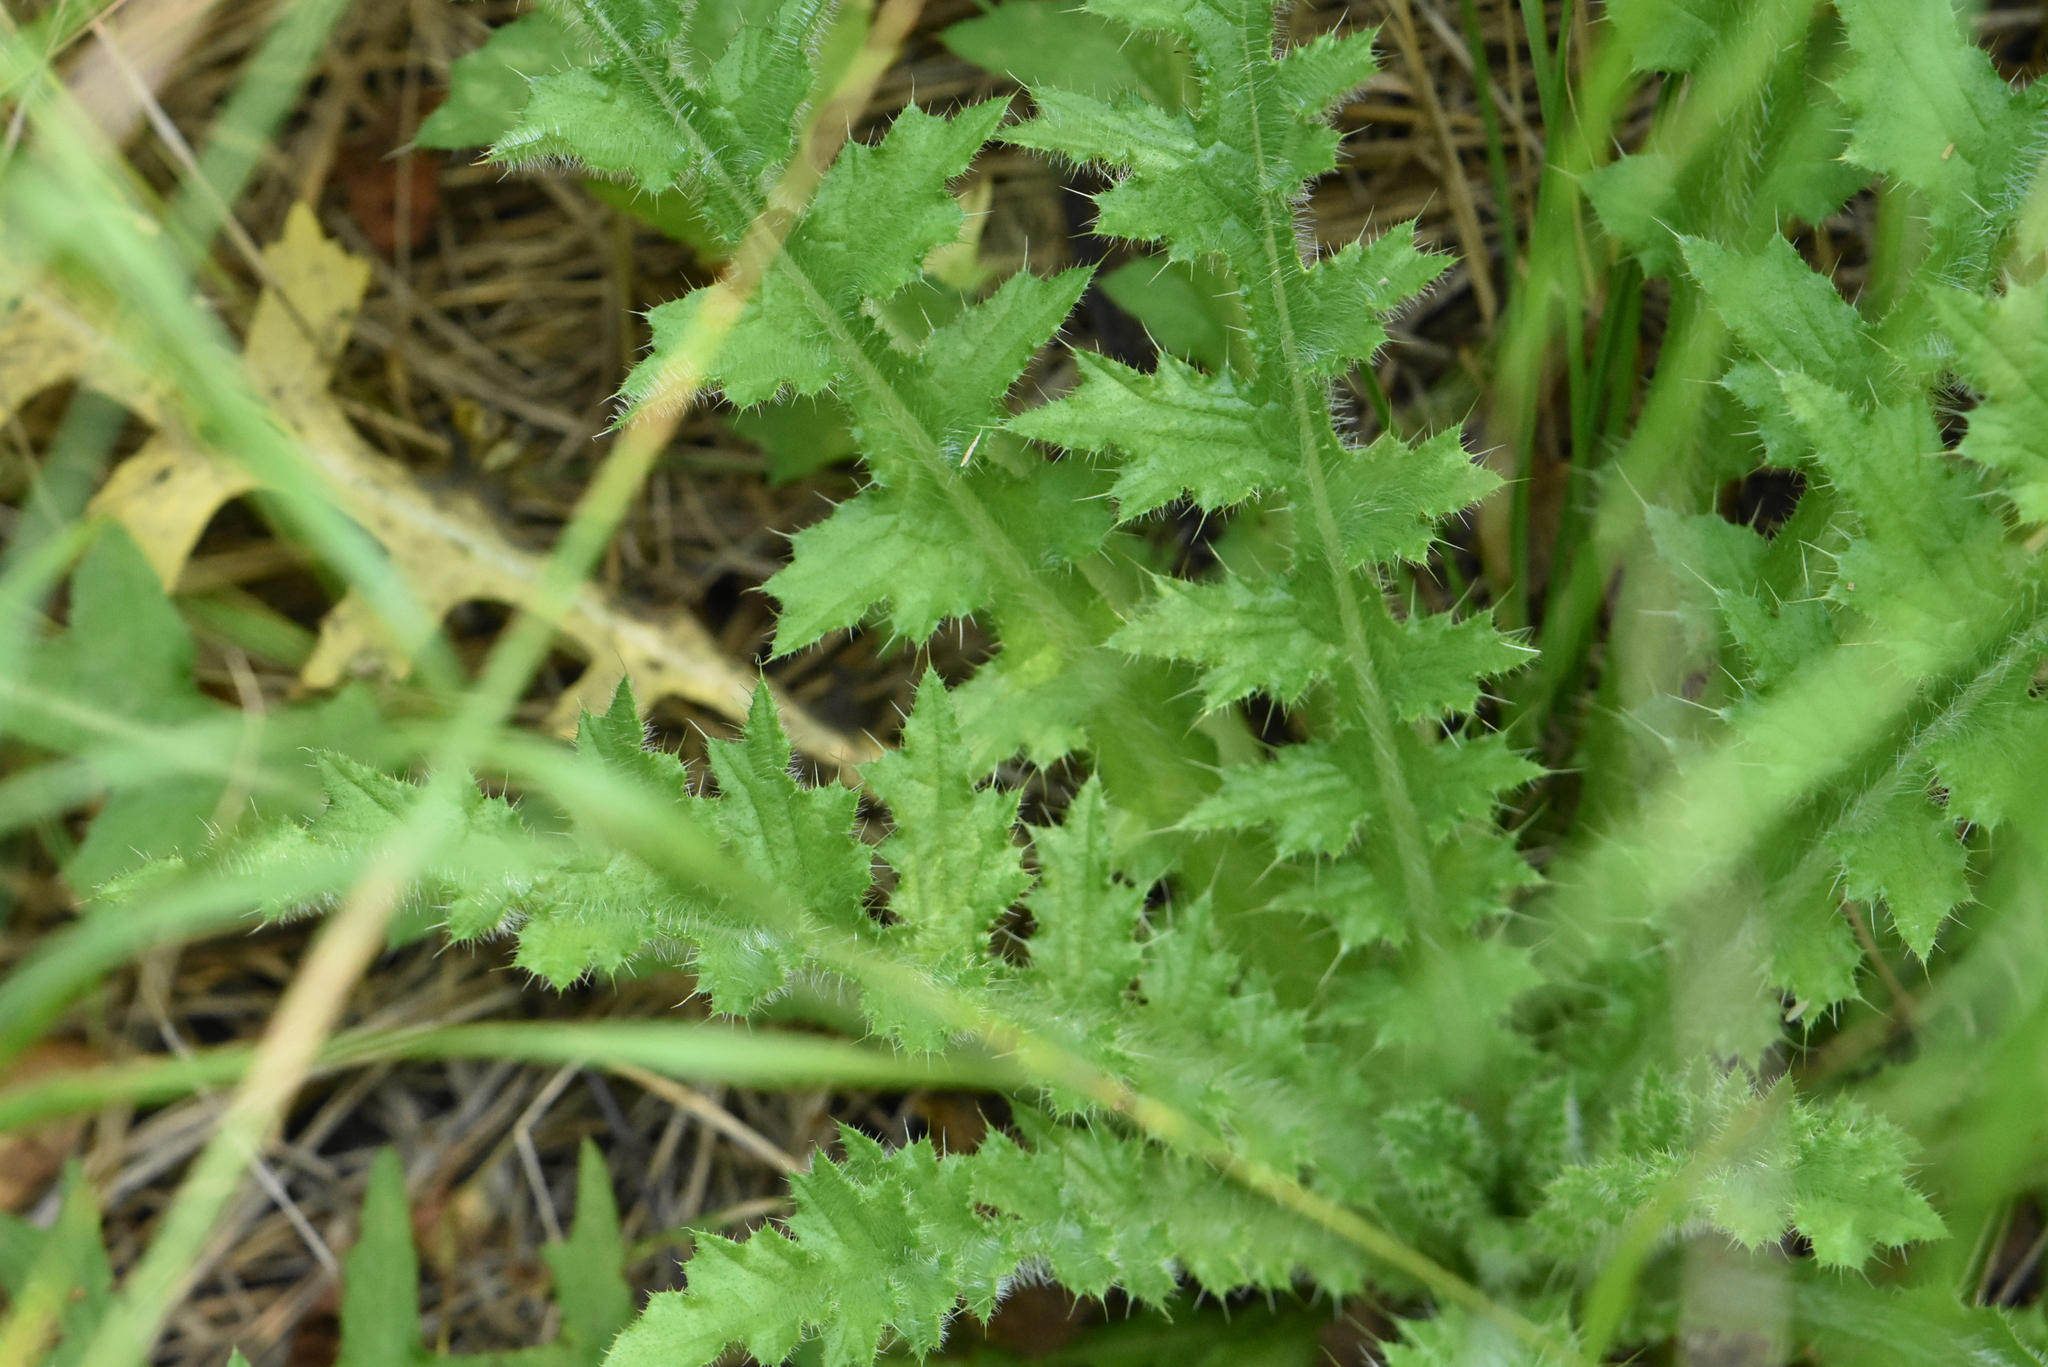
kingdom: Plantae
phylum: Tracheophyta
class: Magnoliopsida
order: Asterales
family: Asteraceae
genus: Cirsium
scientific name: Cirsium palustre
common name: Marsh thistle
